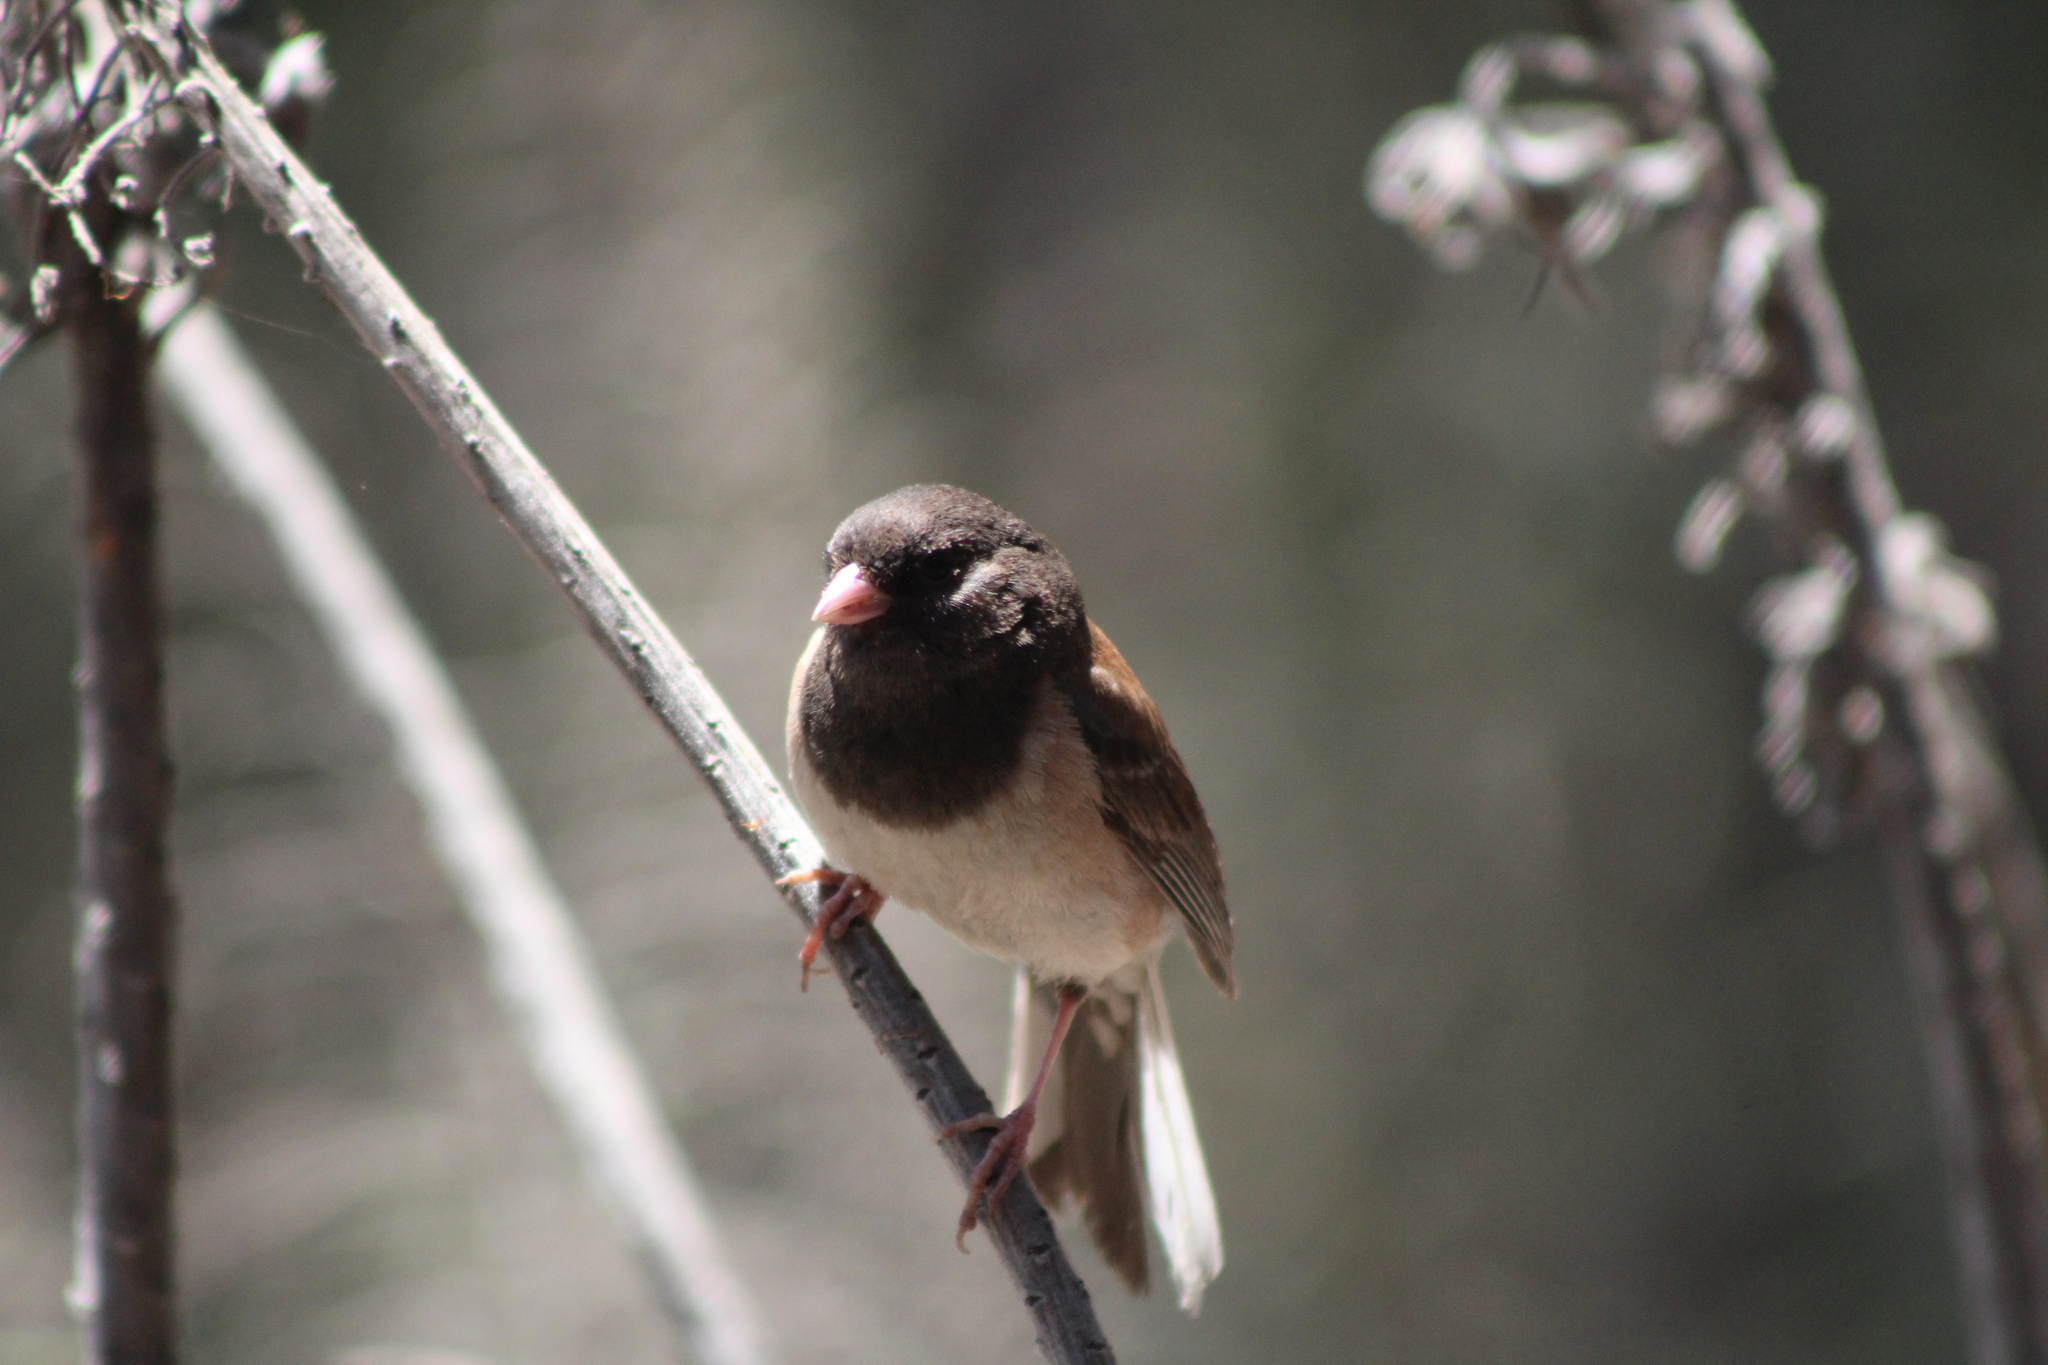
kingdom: Animalia
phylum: Chordata
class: Aves
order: Passeriformes
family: Passerellidae
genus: Junco
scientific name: Junco hyemalis
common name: Dark-eyed junco
